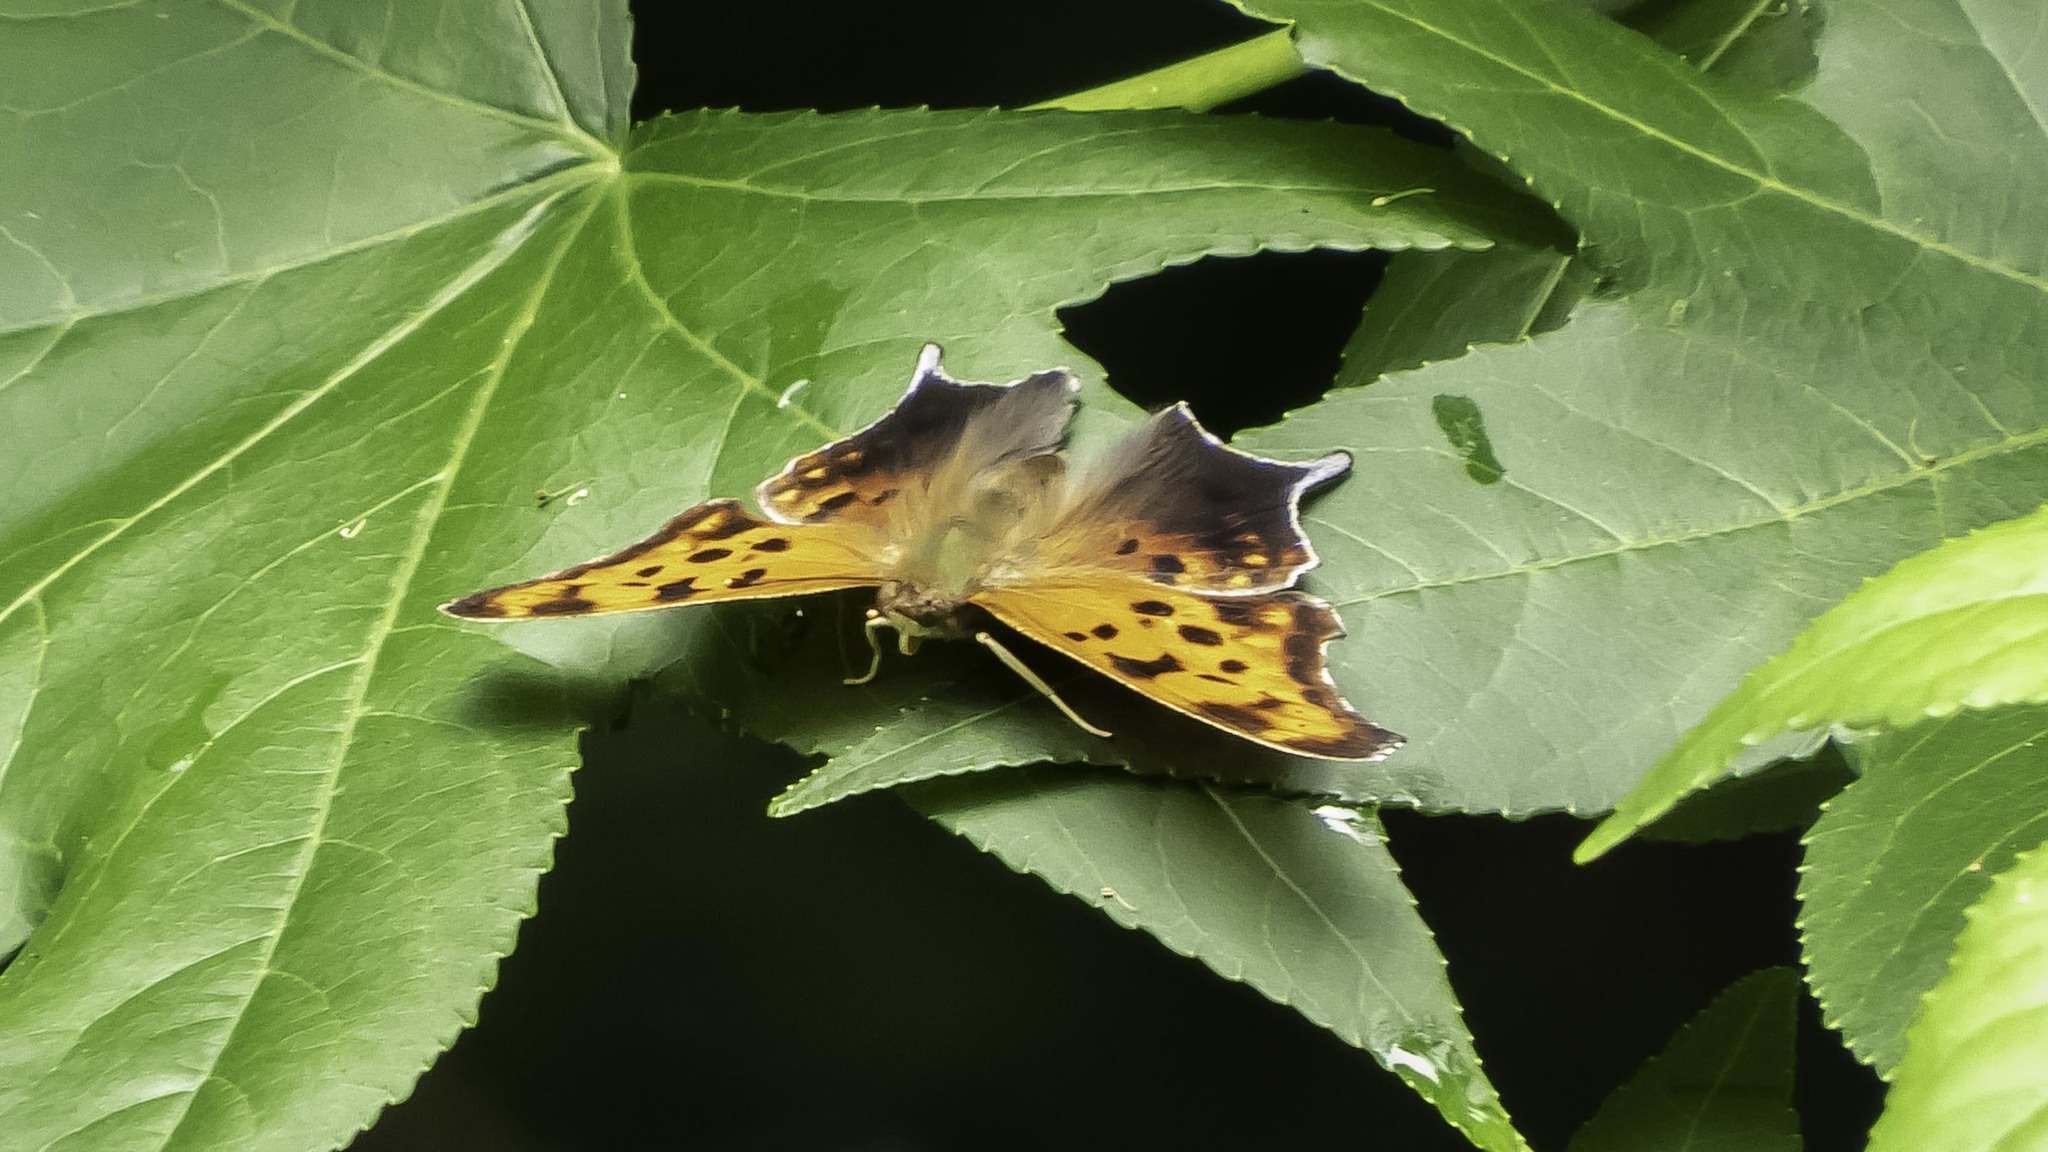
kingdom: Animalia
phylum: Arthropoda
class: Insecta
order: Lepidoptera
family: Nymphalidae
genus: Polygonia
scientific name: Polygonia interrogationis
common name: Question mark
